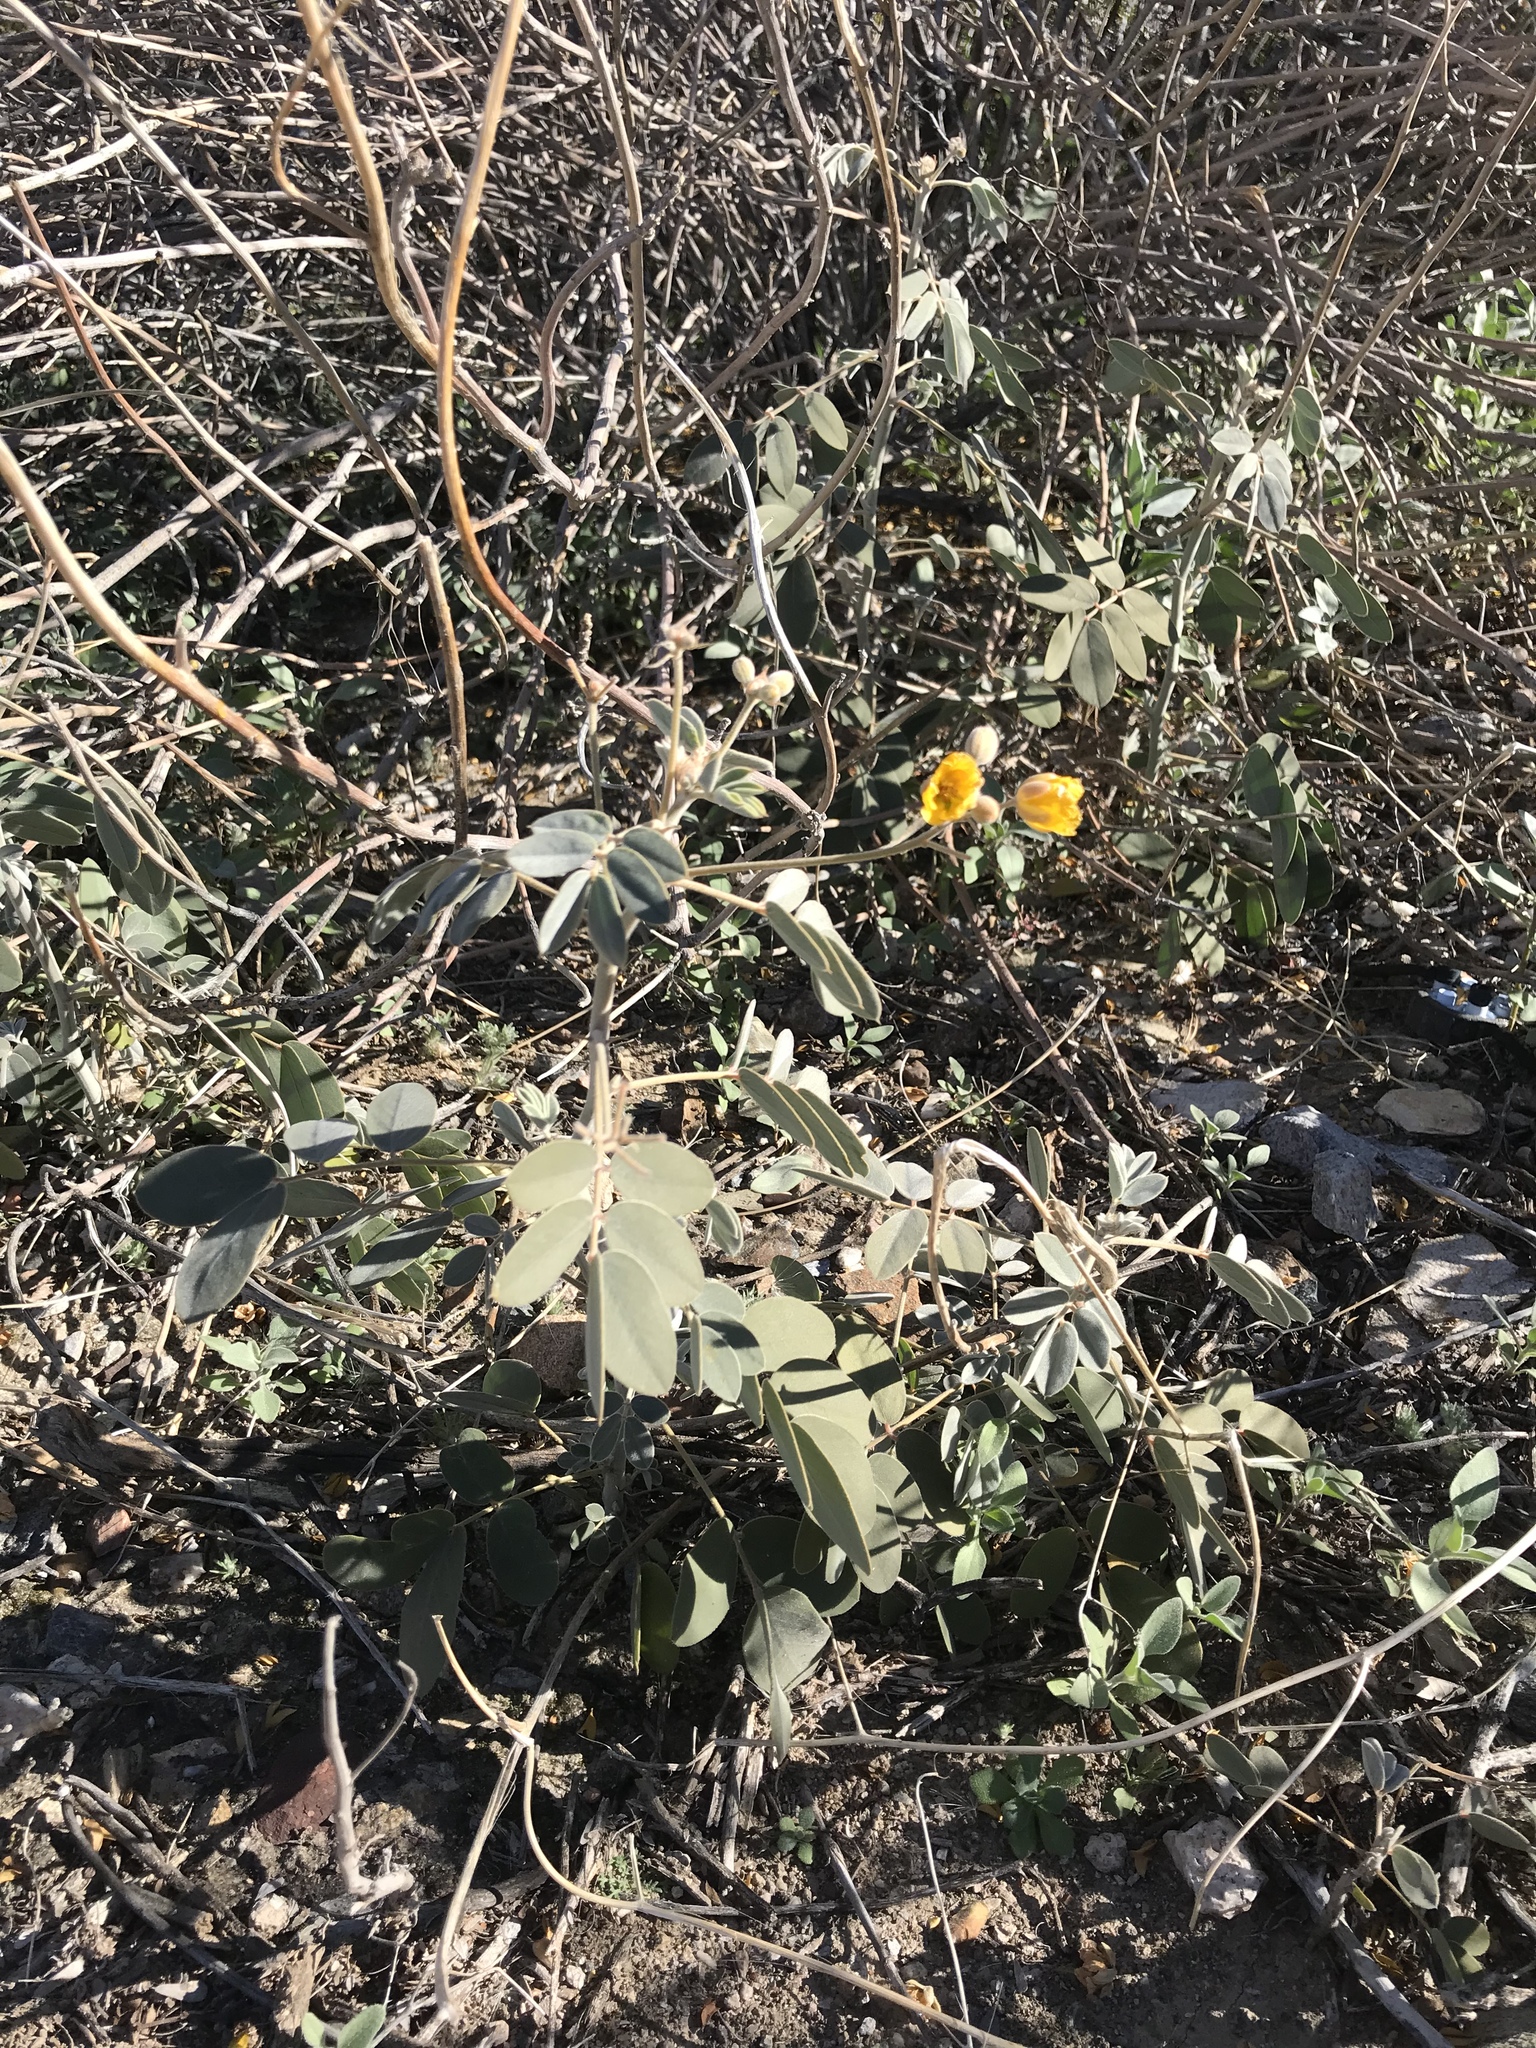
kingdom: Plantae
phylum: Tracheophyta
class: Magnoliopsida
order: Fabales
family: Fabaceae
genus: Senna
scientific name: Senna covesii
